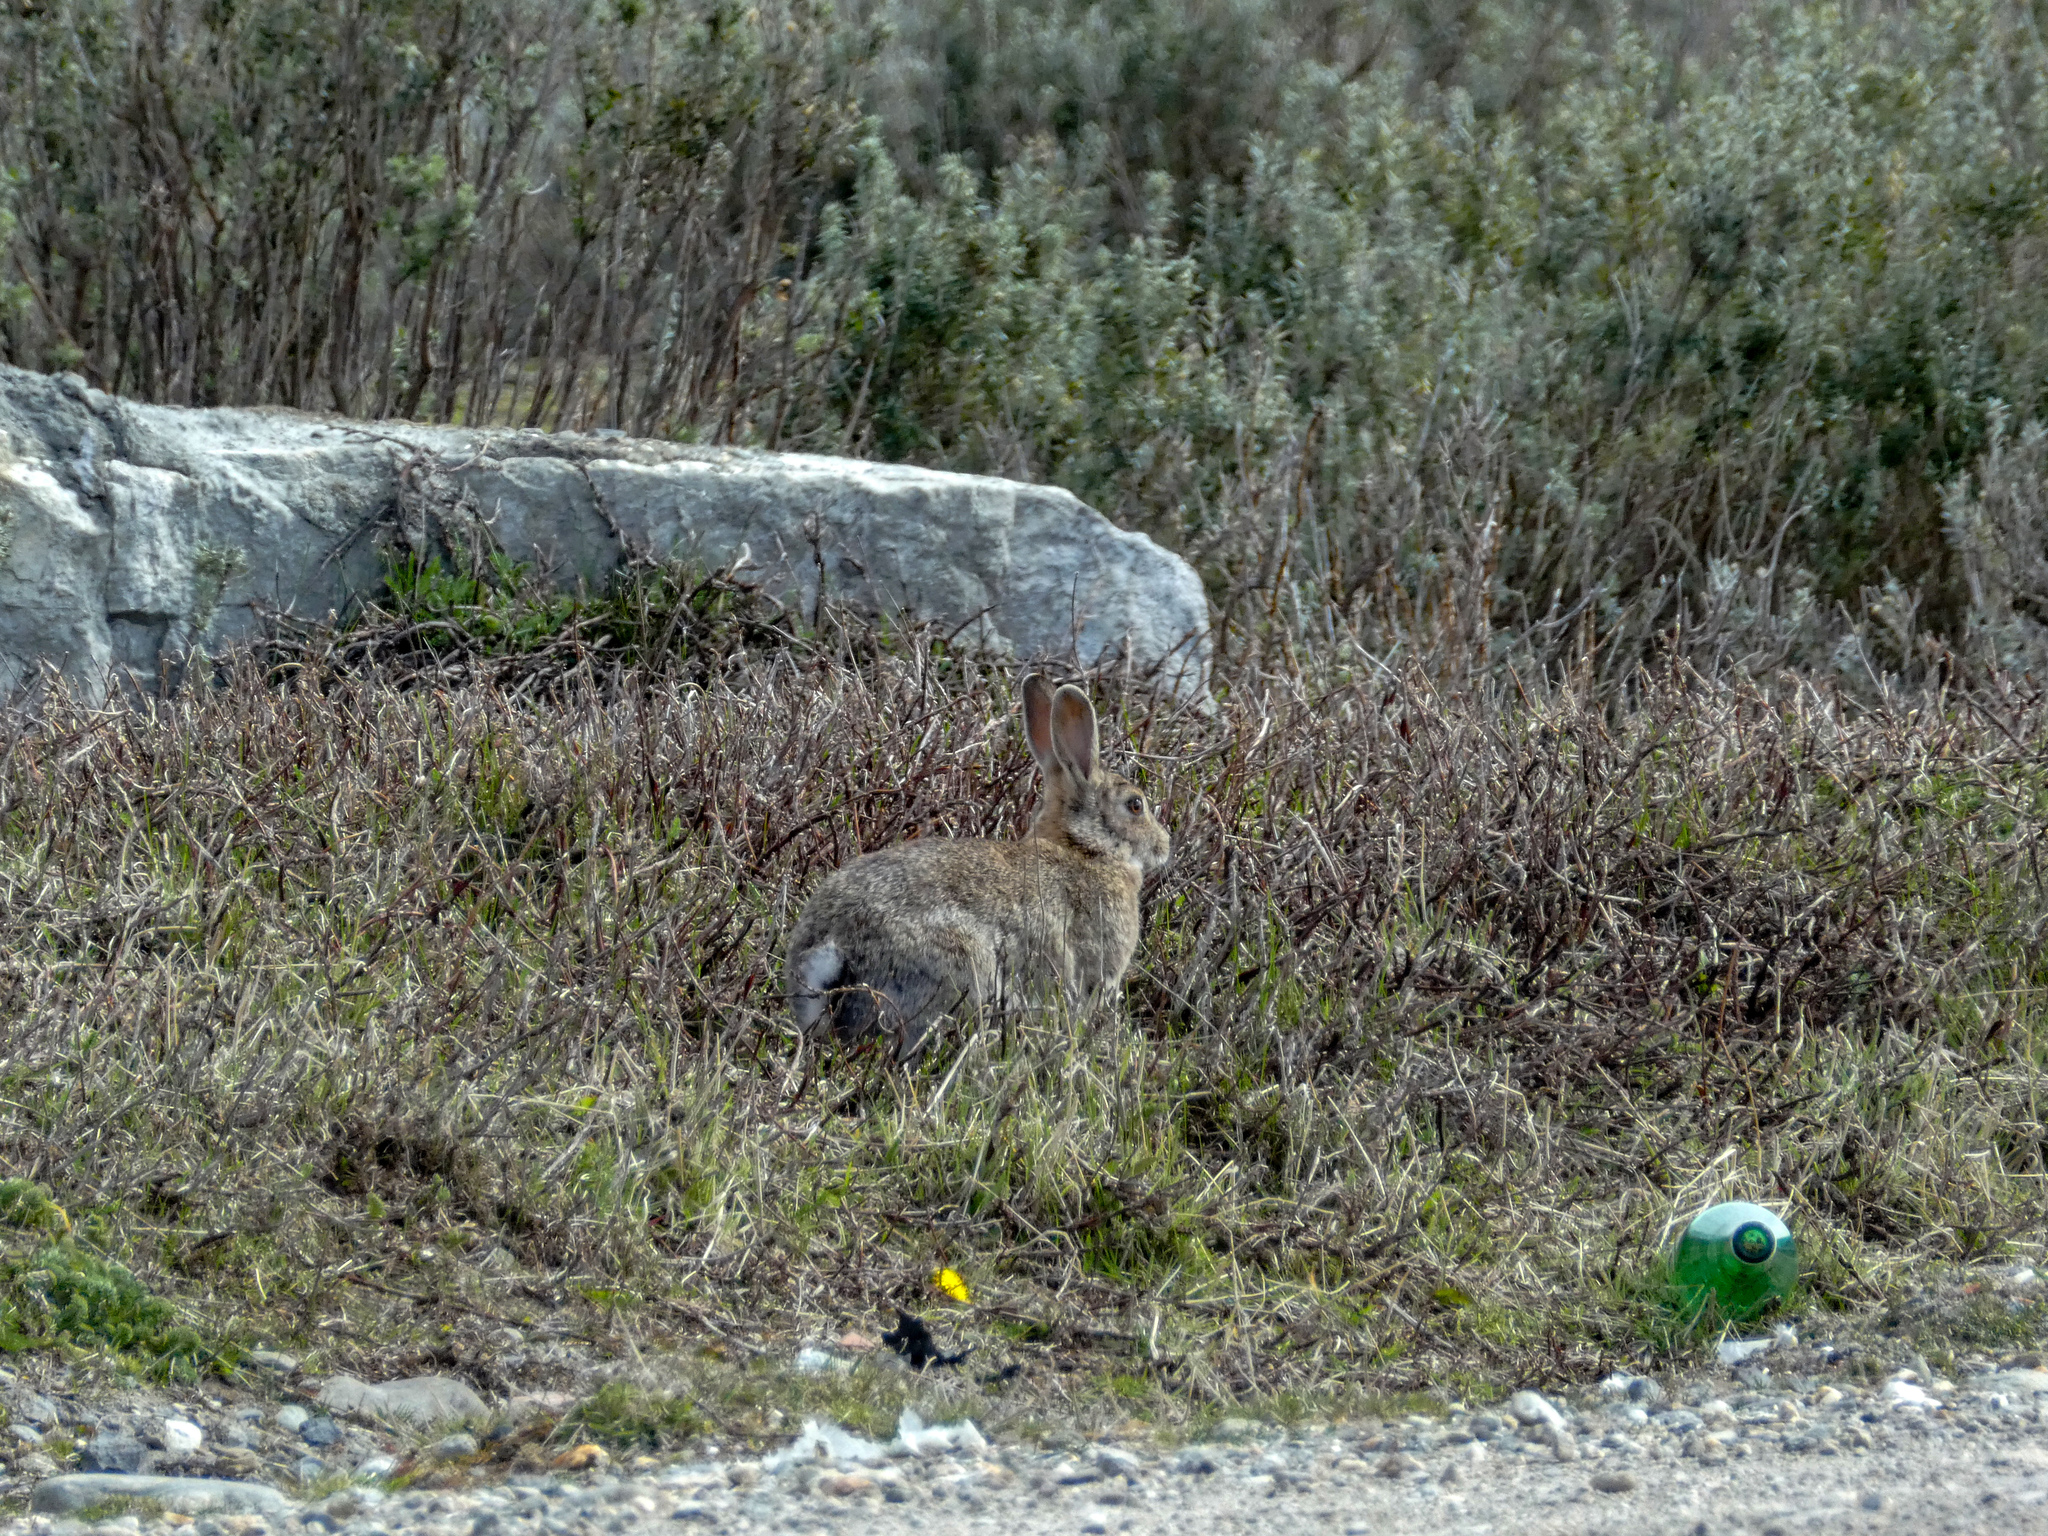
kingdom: Animalia
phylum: Chordata
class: Mammalia
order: Lagomorpha
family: Leporidae
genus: Oryctolagus
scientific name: Oryctolagus cuniculus
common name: European rabbit
